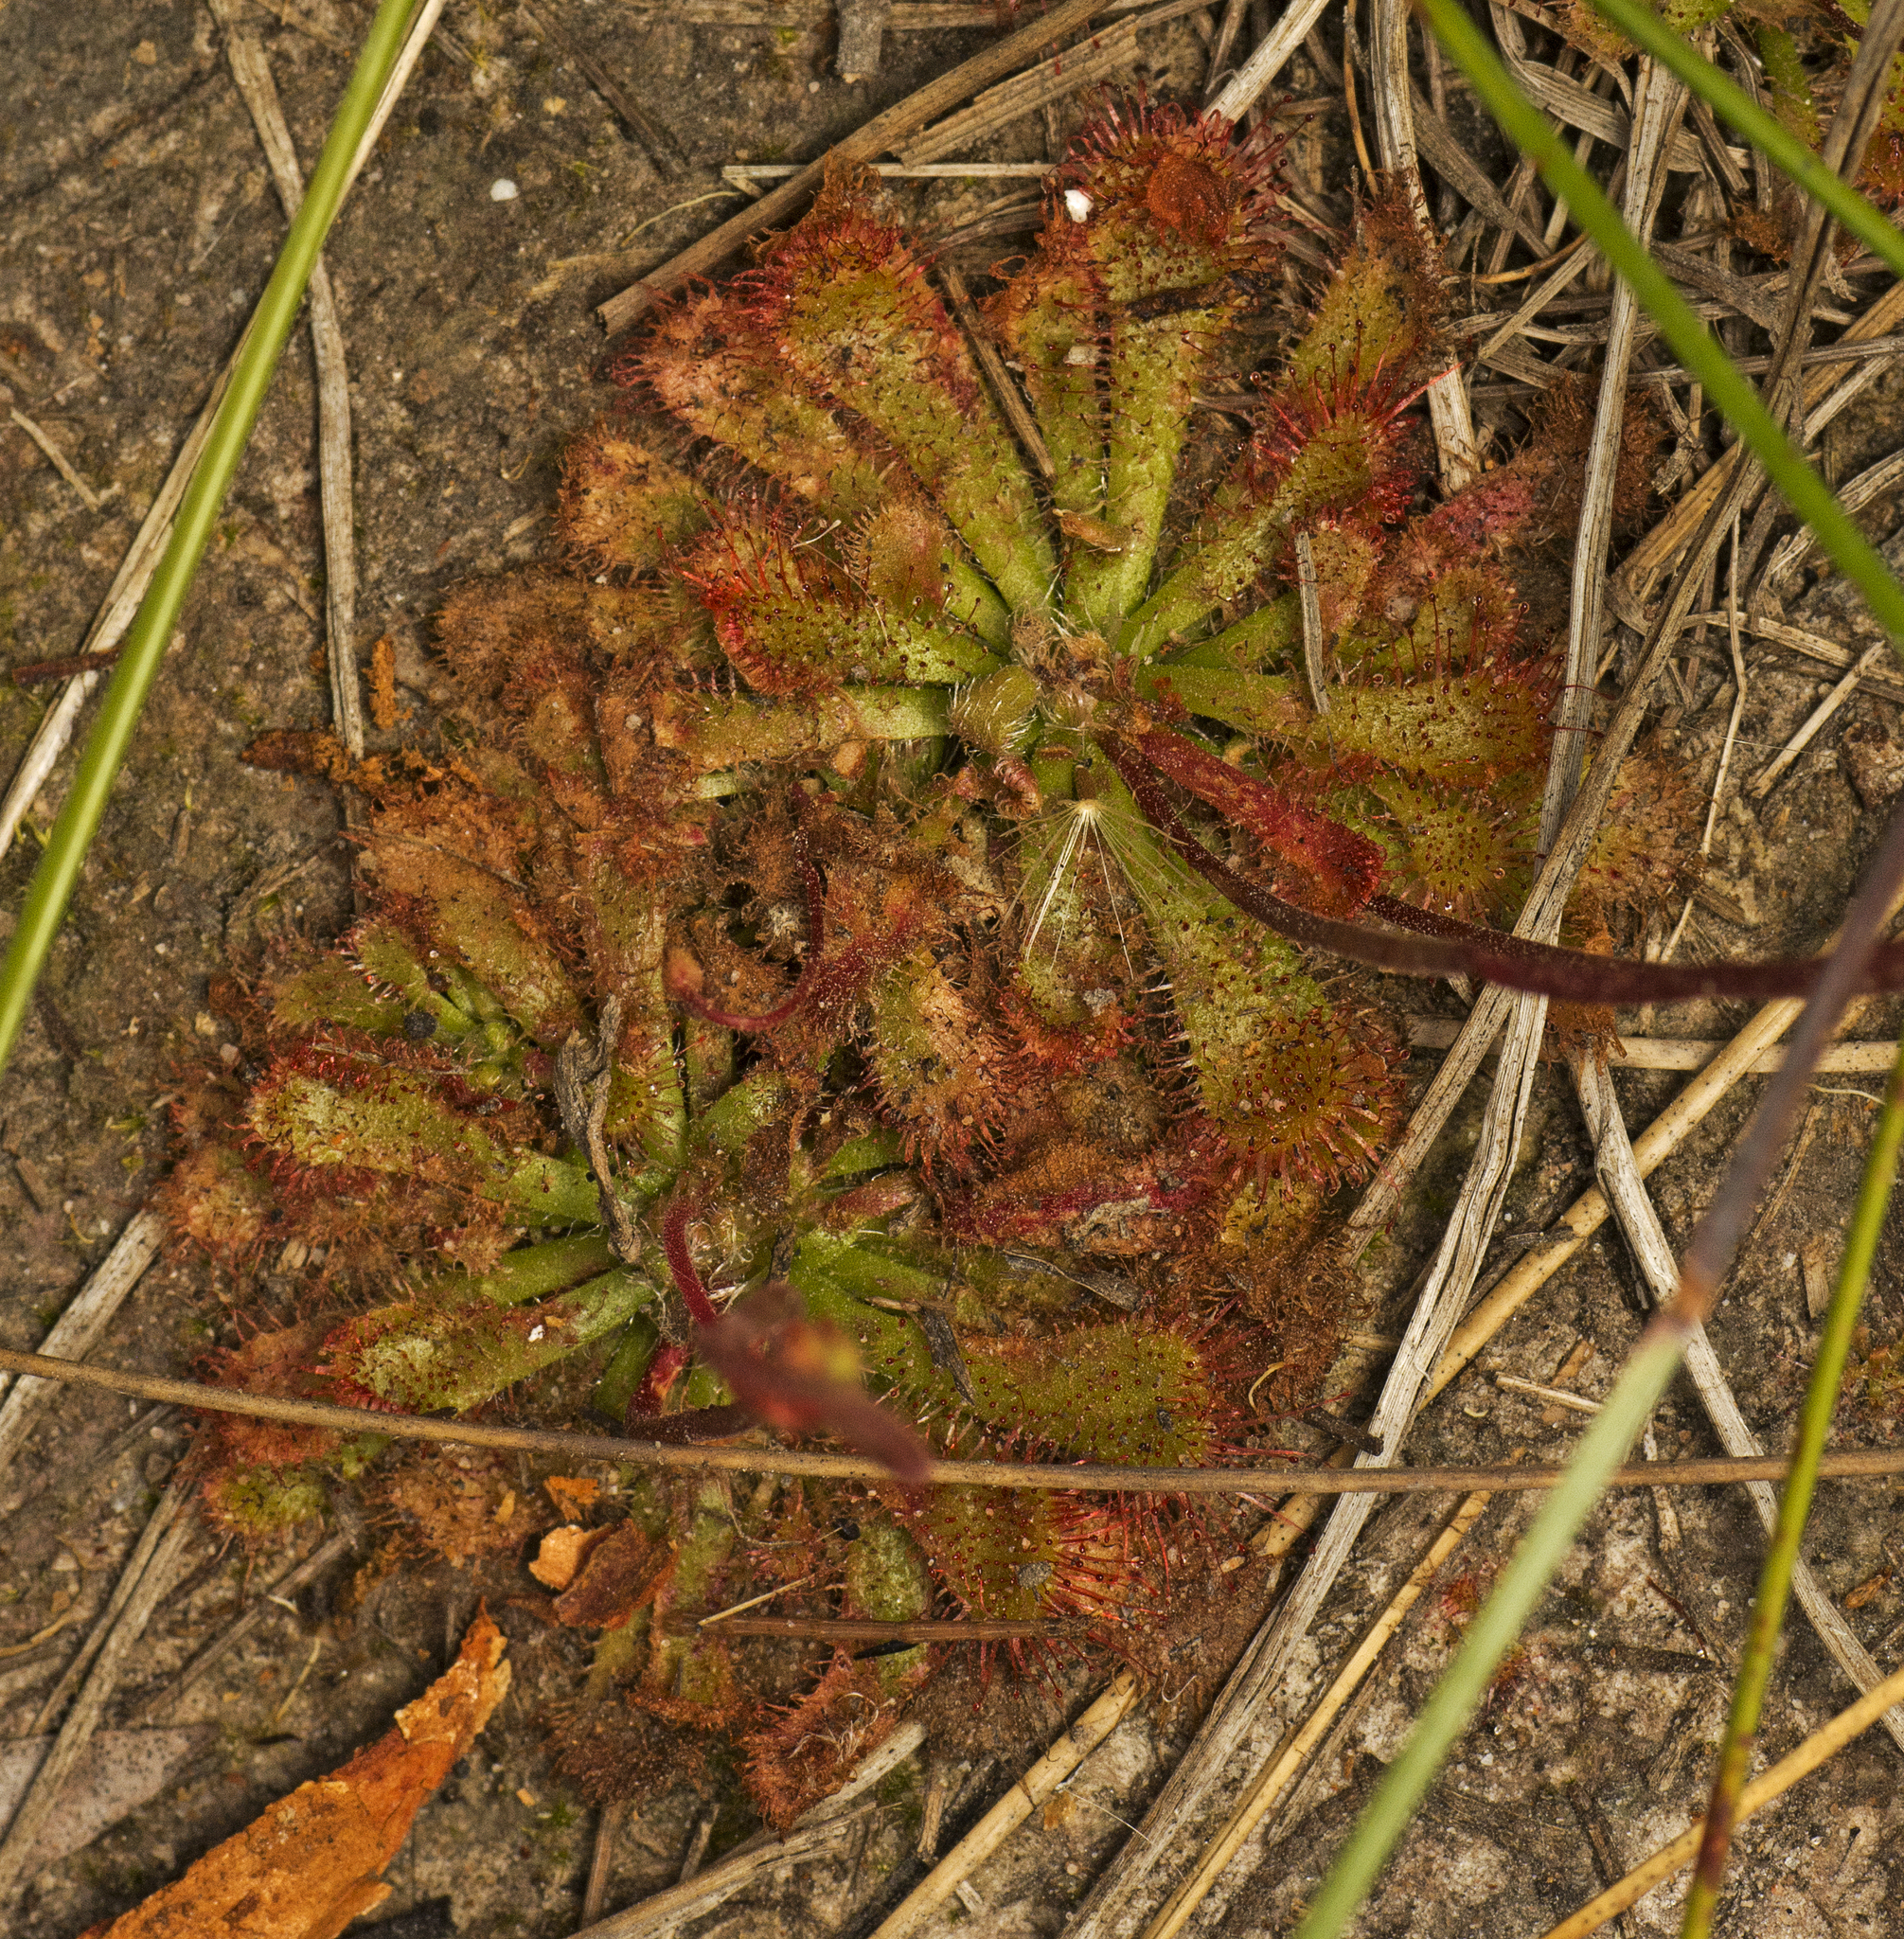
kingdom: Plantae
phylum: Tracheophyta
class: Magnoliopsida
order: Caryophyllales
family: Droseraceae
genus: Drosera
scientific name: Drosera spatulata
